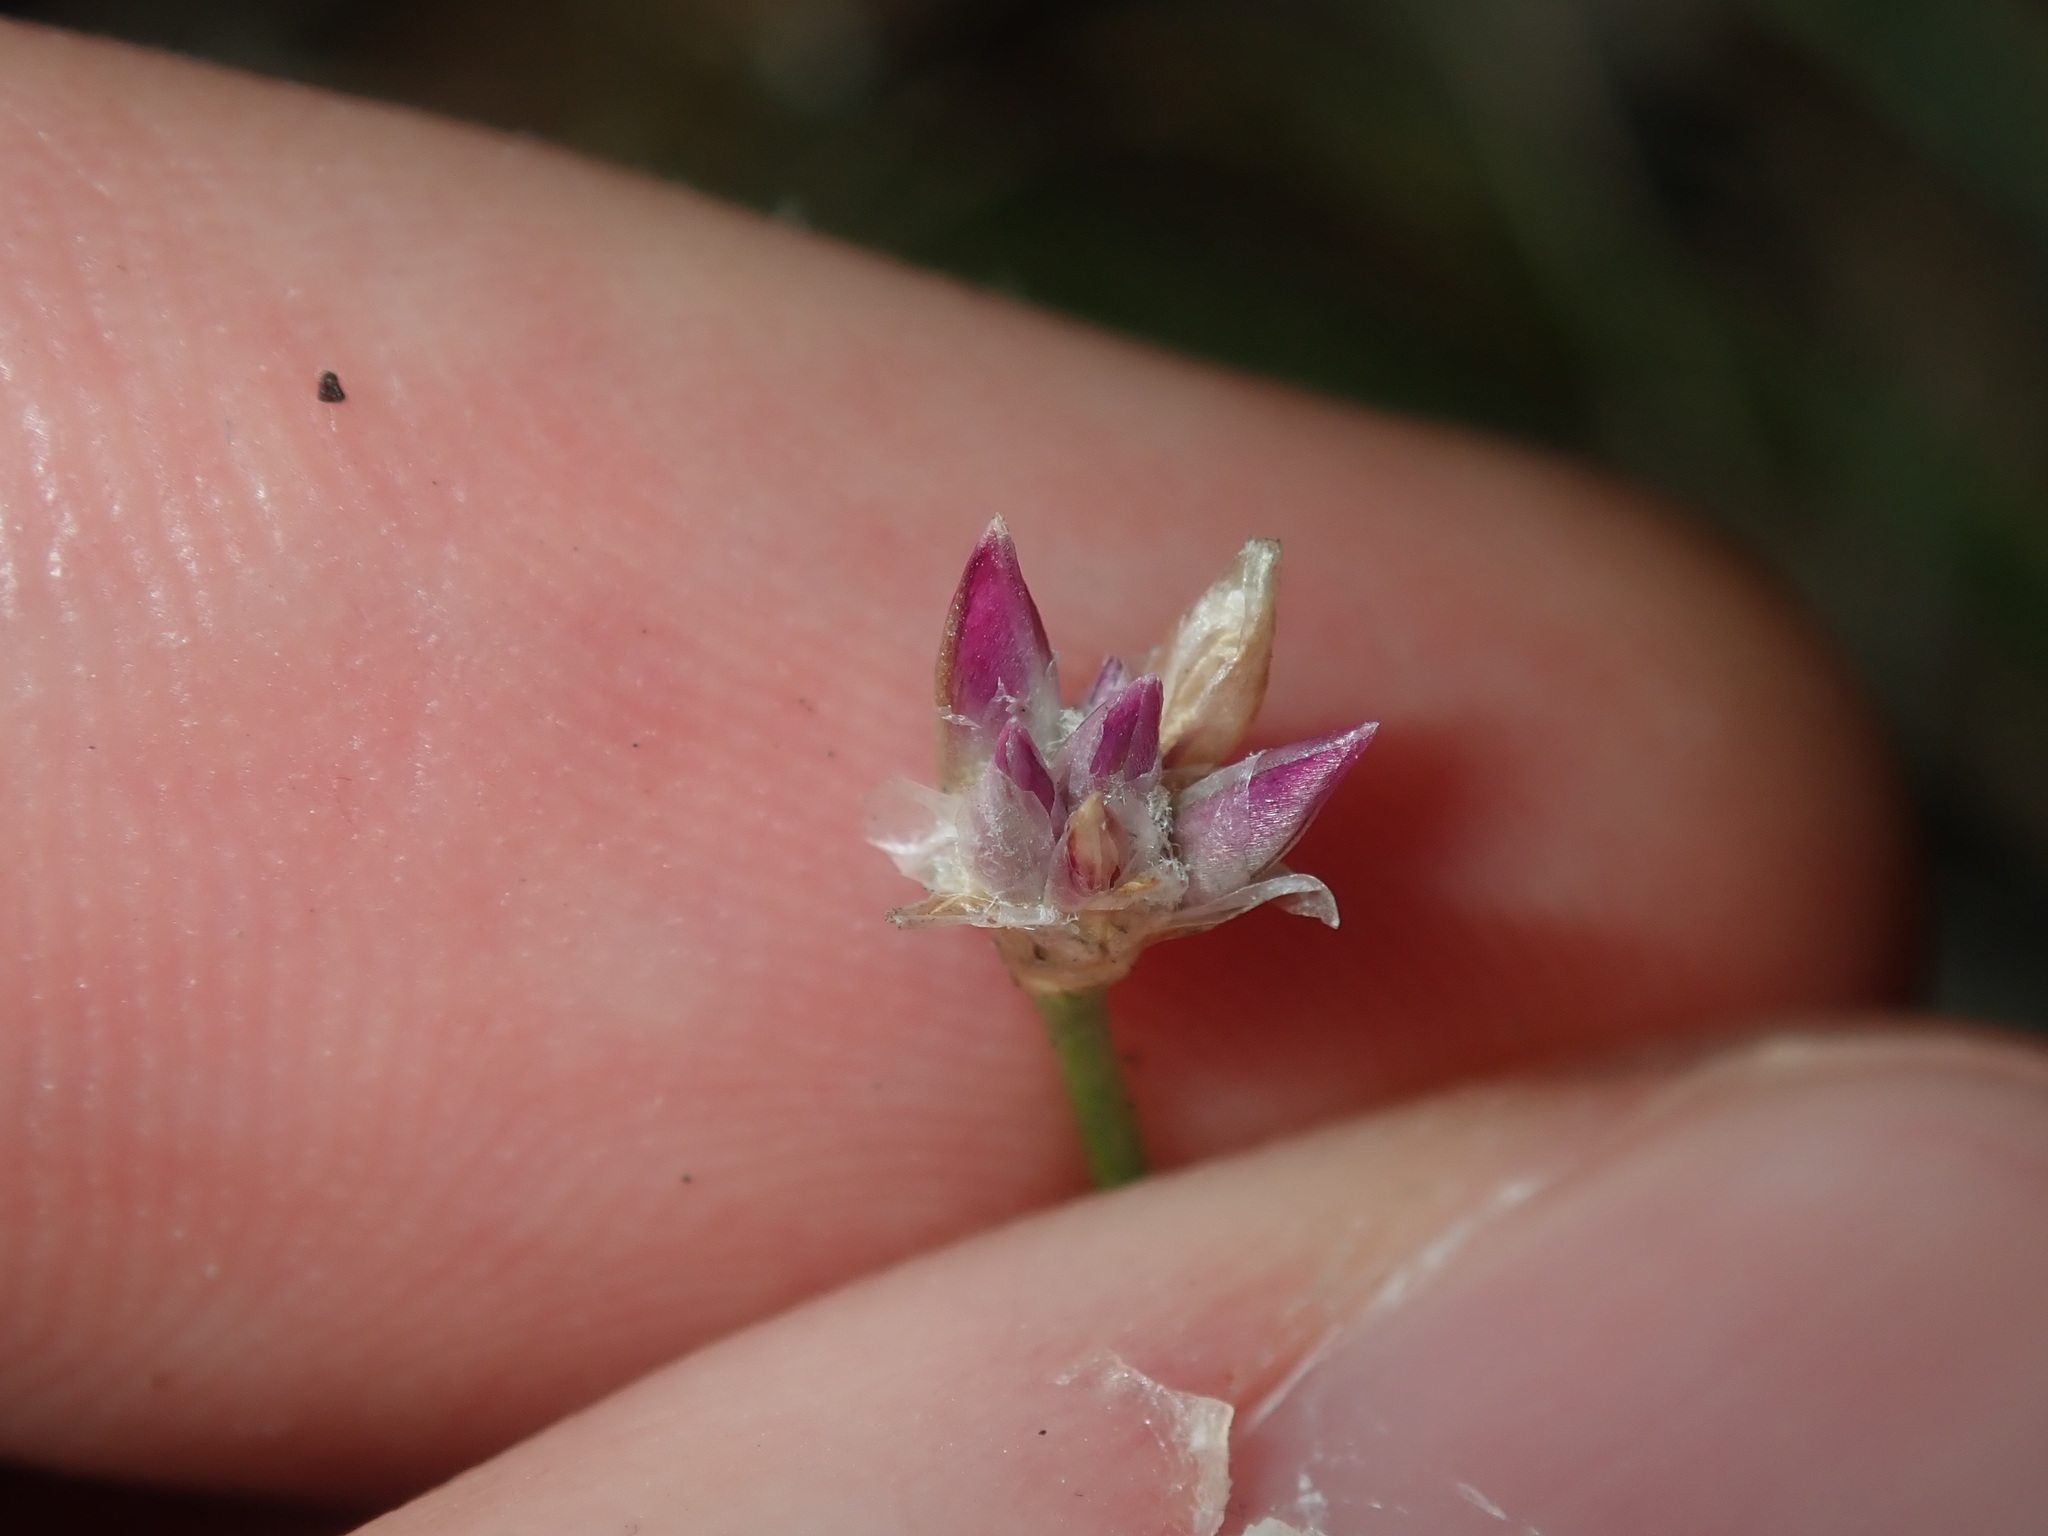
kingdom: Plantae
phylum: Tracheophyta
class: Liliopsida
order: Asparagales
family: Asparagaceae
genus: Laxmannia
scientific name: Laxmannia gracilis
